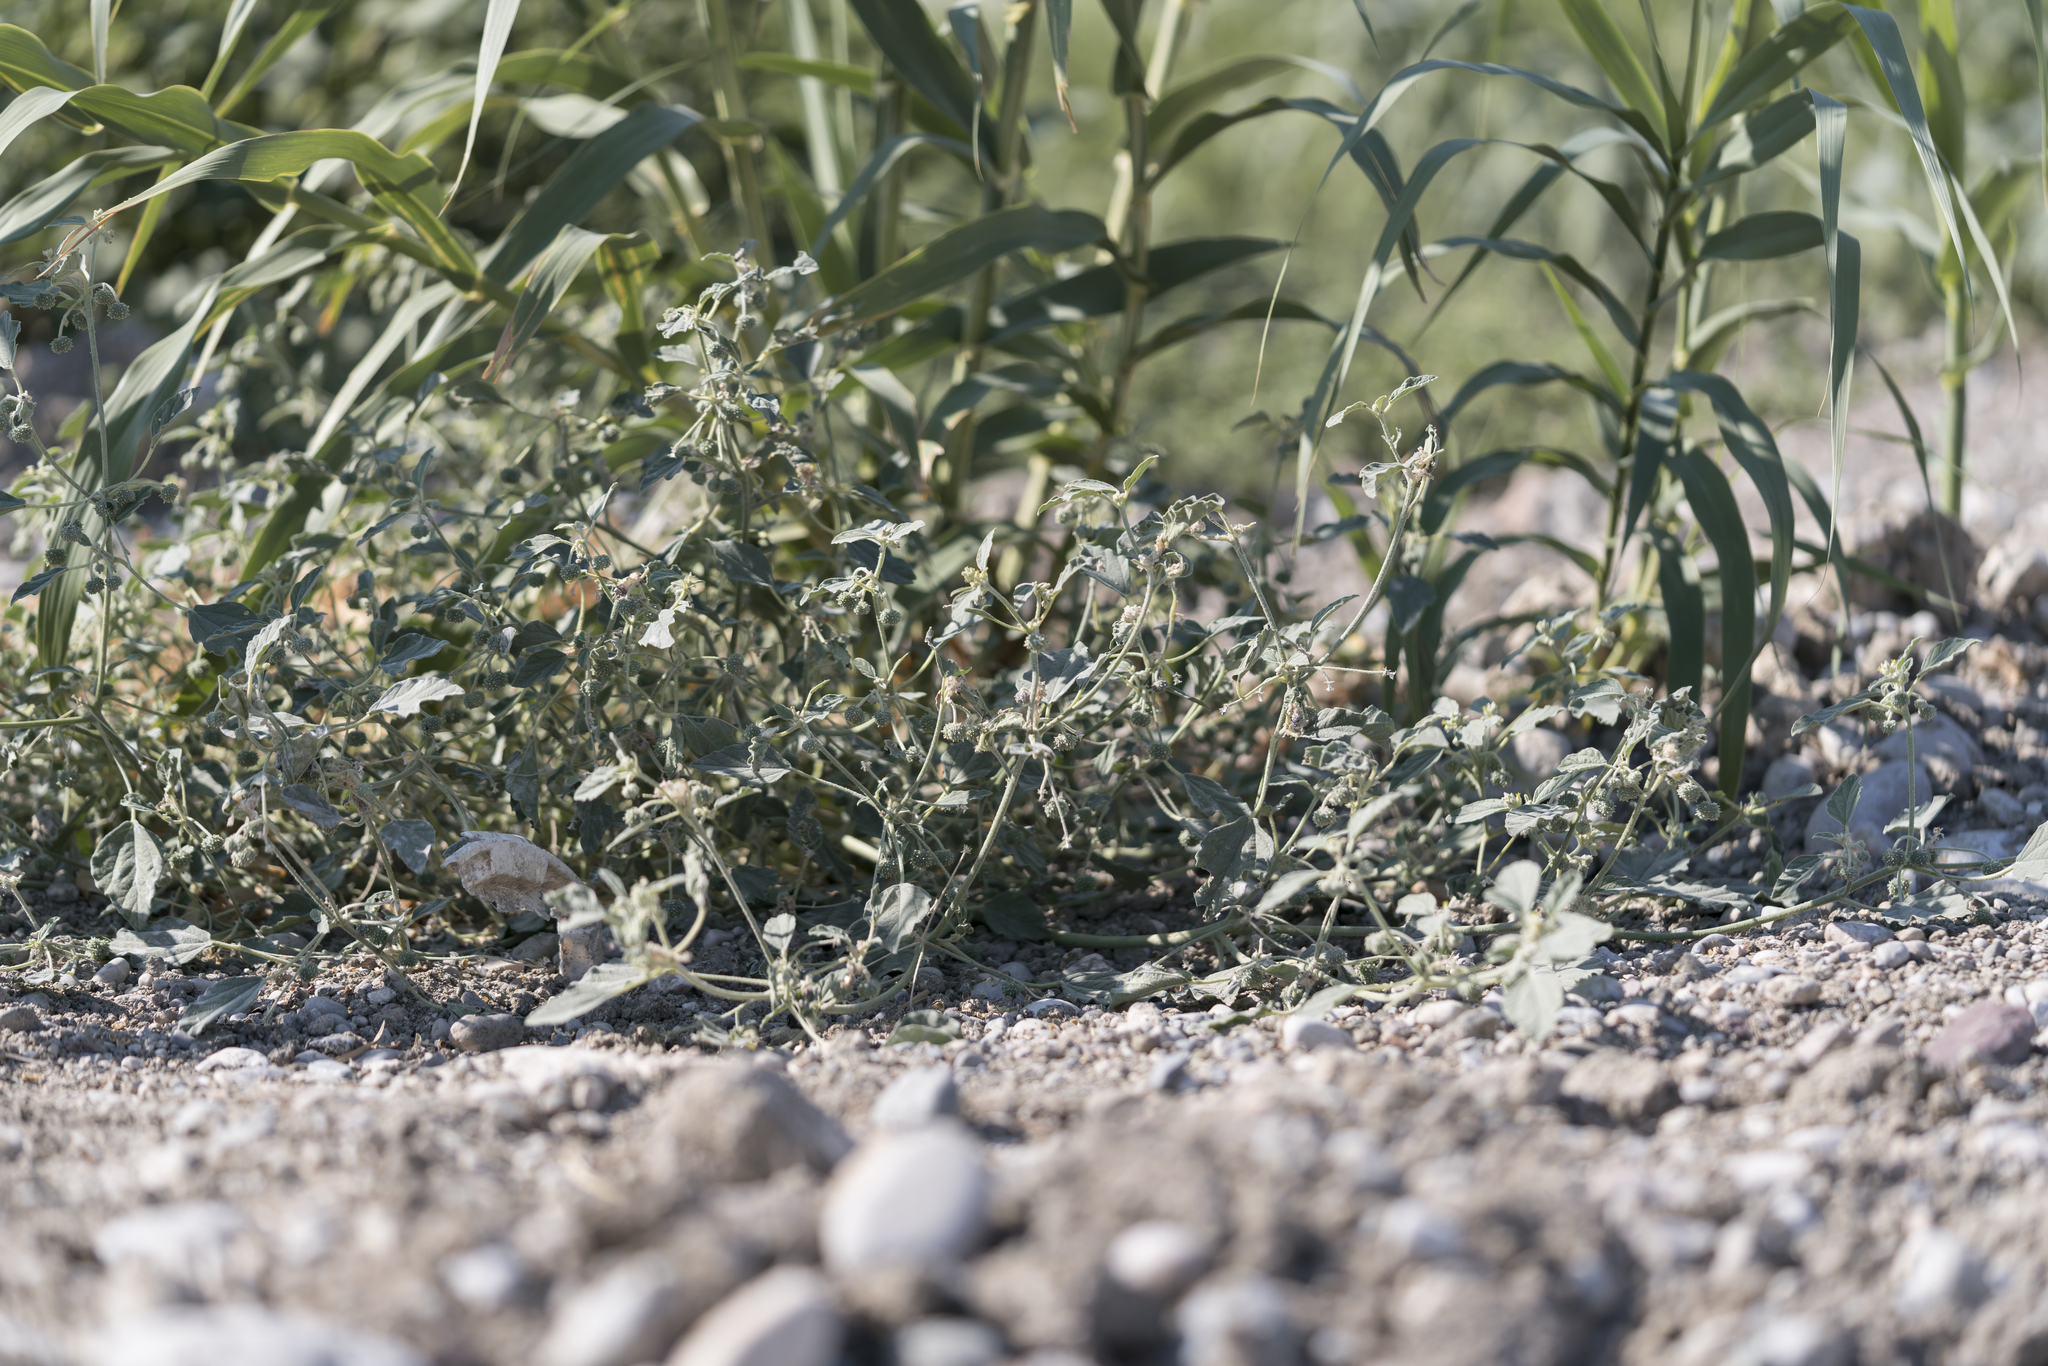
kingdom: Plantae
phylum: Tracheophyta
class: Magnoliopsida
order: Malpighiales
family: Euphorbiaceae
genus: Chrozophora
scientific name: Chrozophora tinctoria
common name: Dyer's litmus
